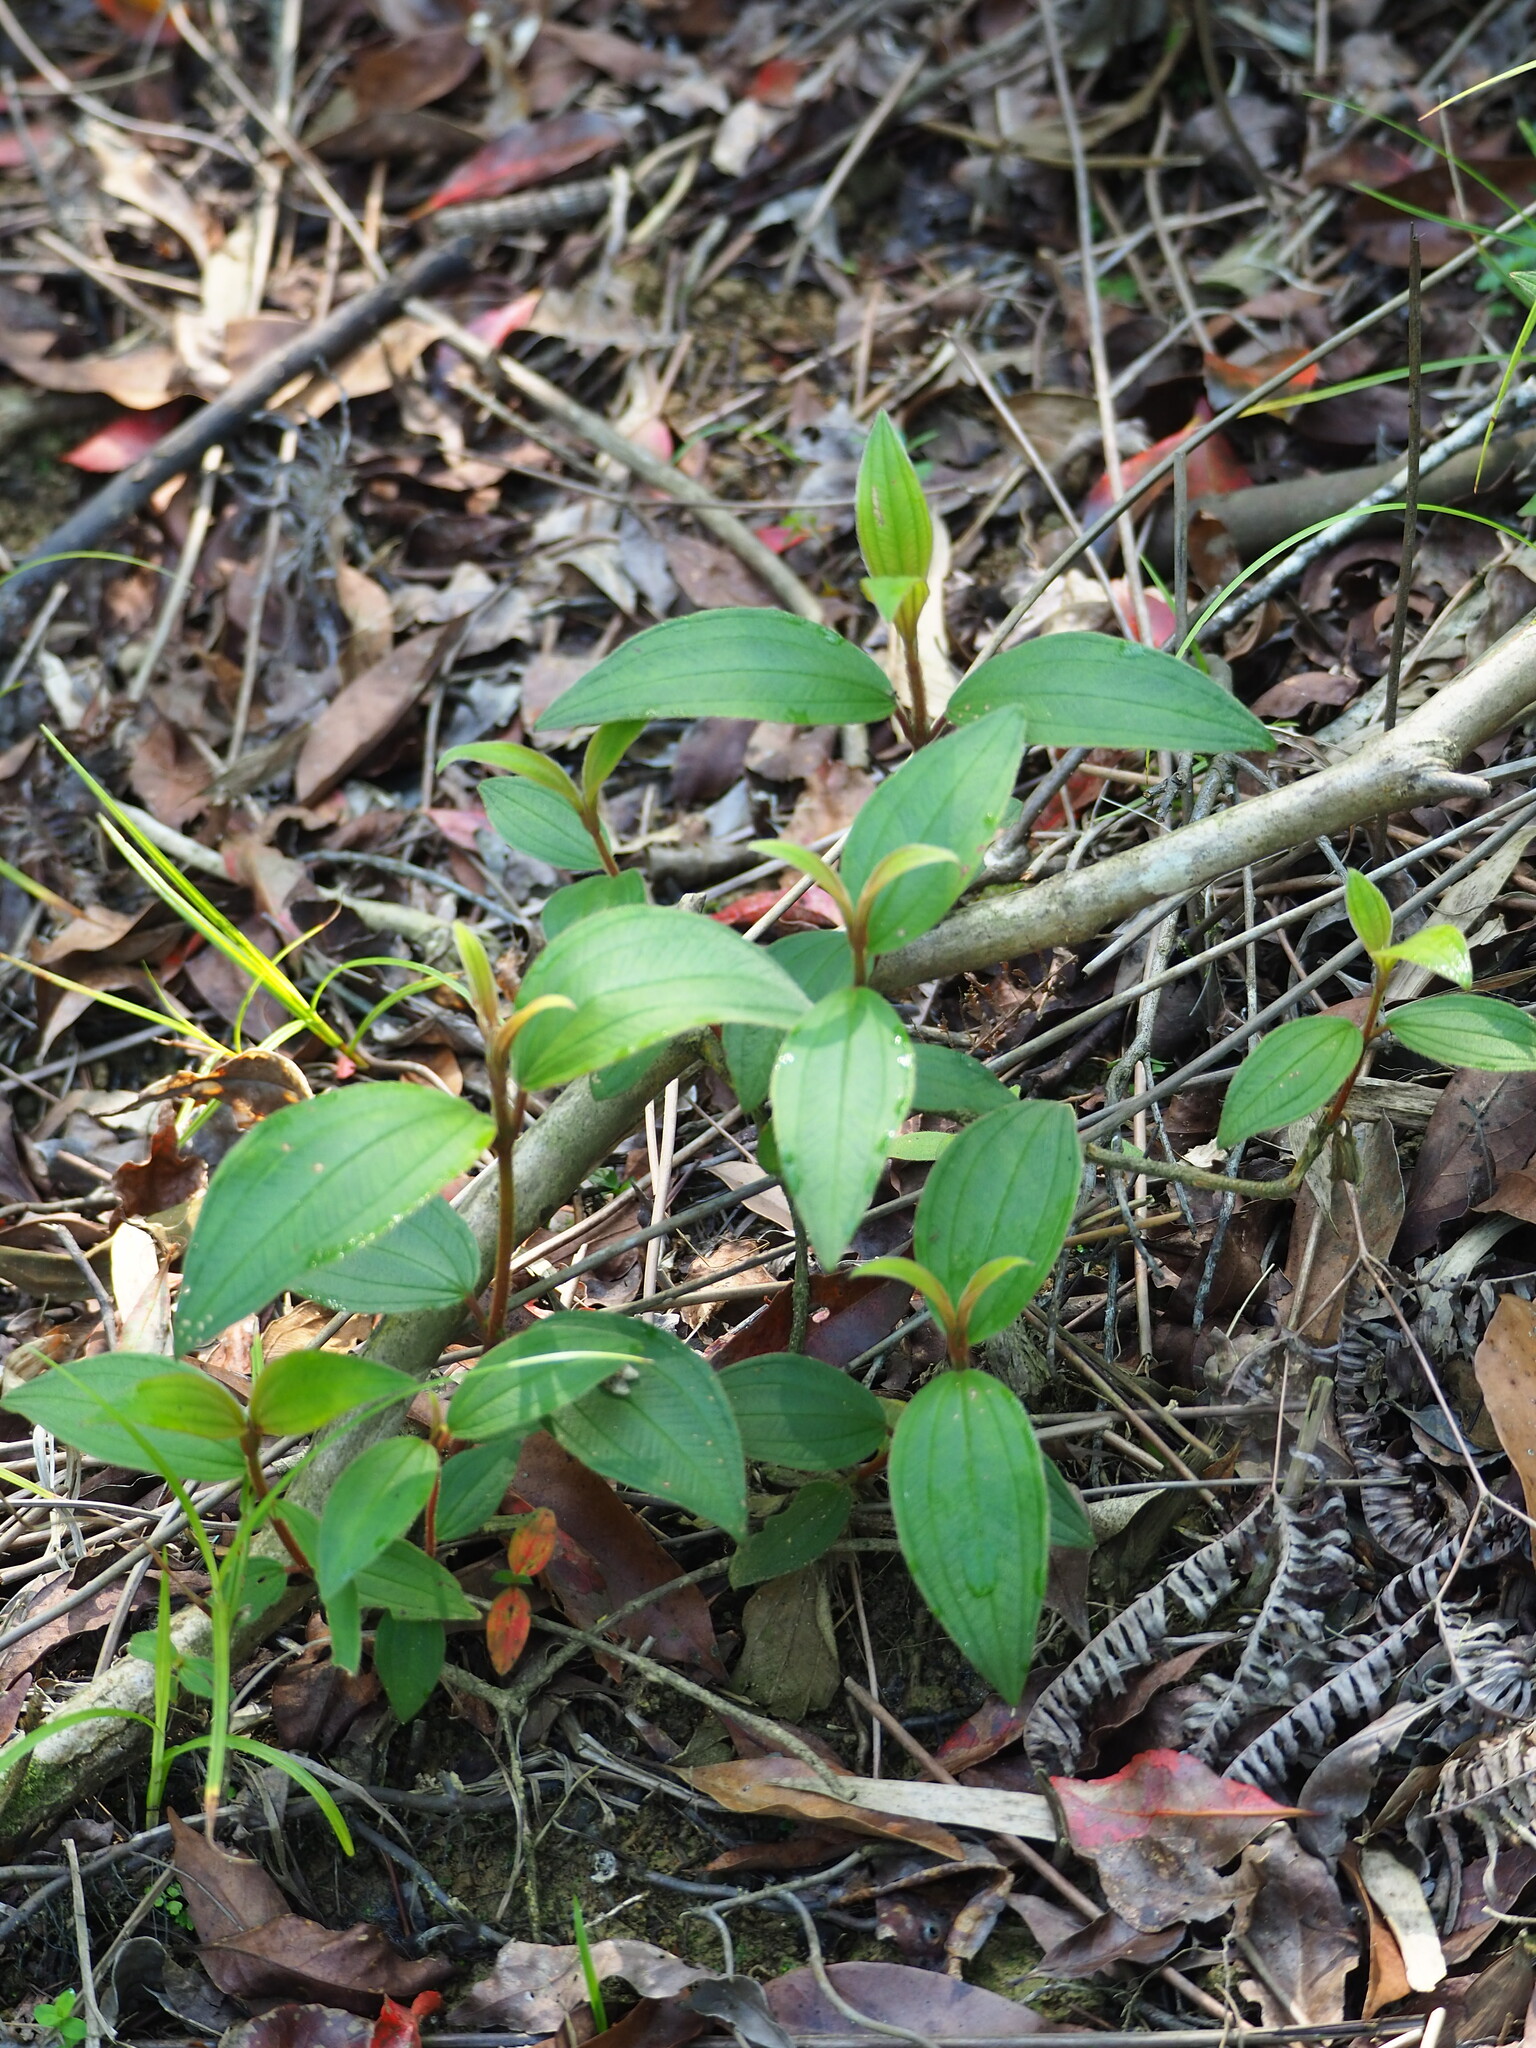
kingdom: Plantae
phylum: Tracheophyta
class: Magnoliopsida
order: Myrtales
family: Melastomataceae
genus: Melastoma
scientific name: Melastoma malabathricum
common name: Indian-rhododendron
